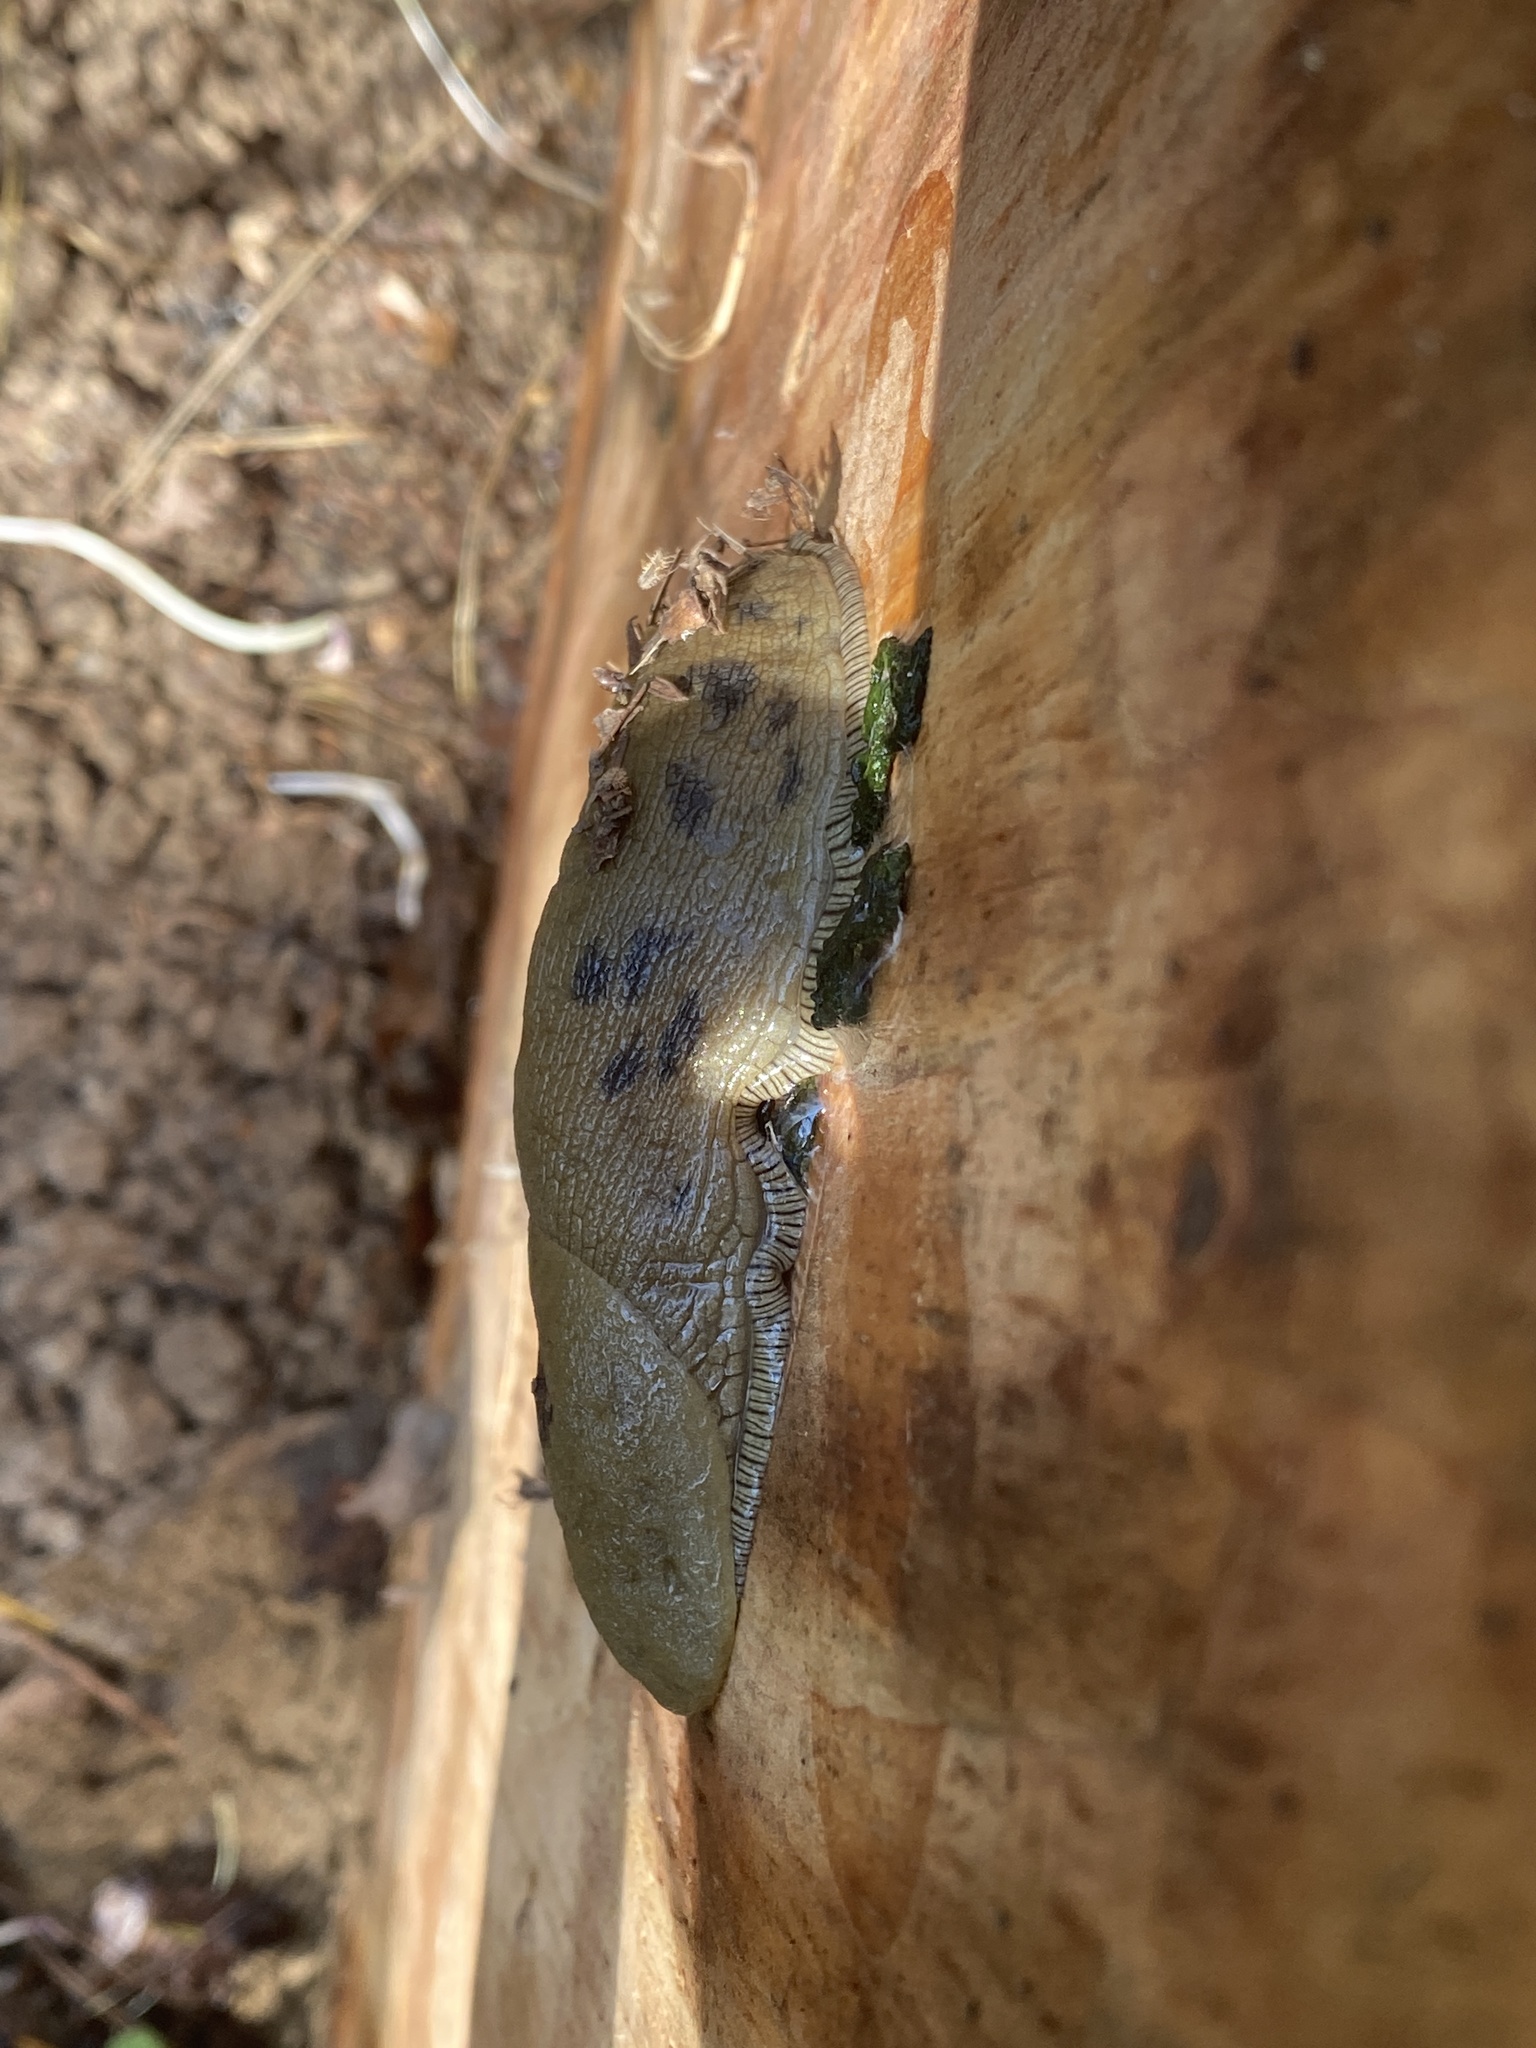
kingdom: Animalia
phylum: Mollusca
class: Gastropoda
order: Stylommatophora
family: Ariolimacidae
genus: Ariolimax
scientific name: Ariolimax buttoni
